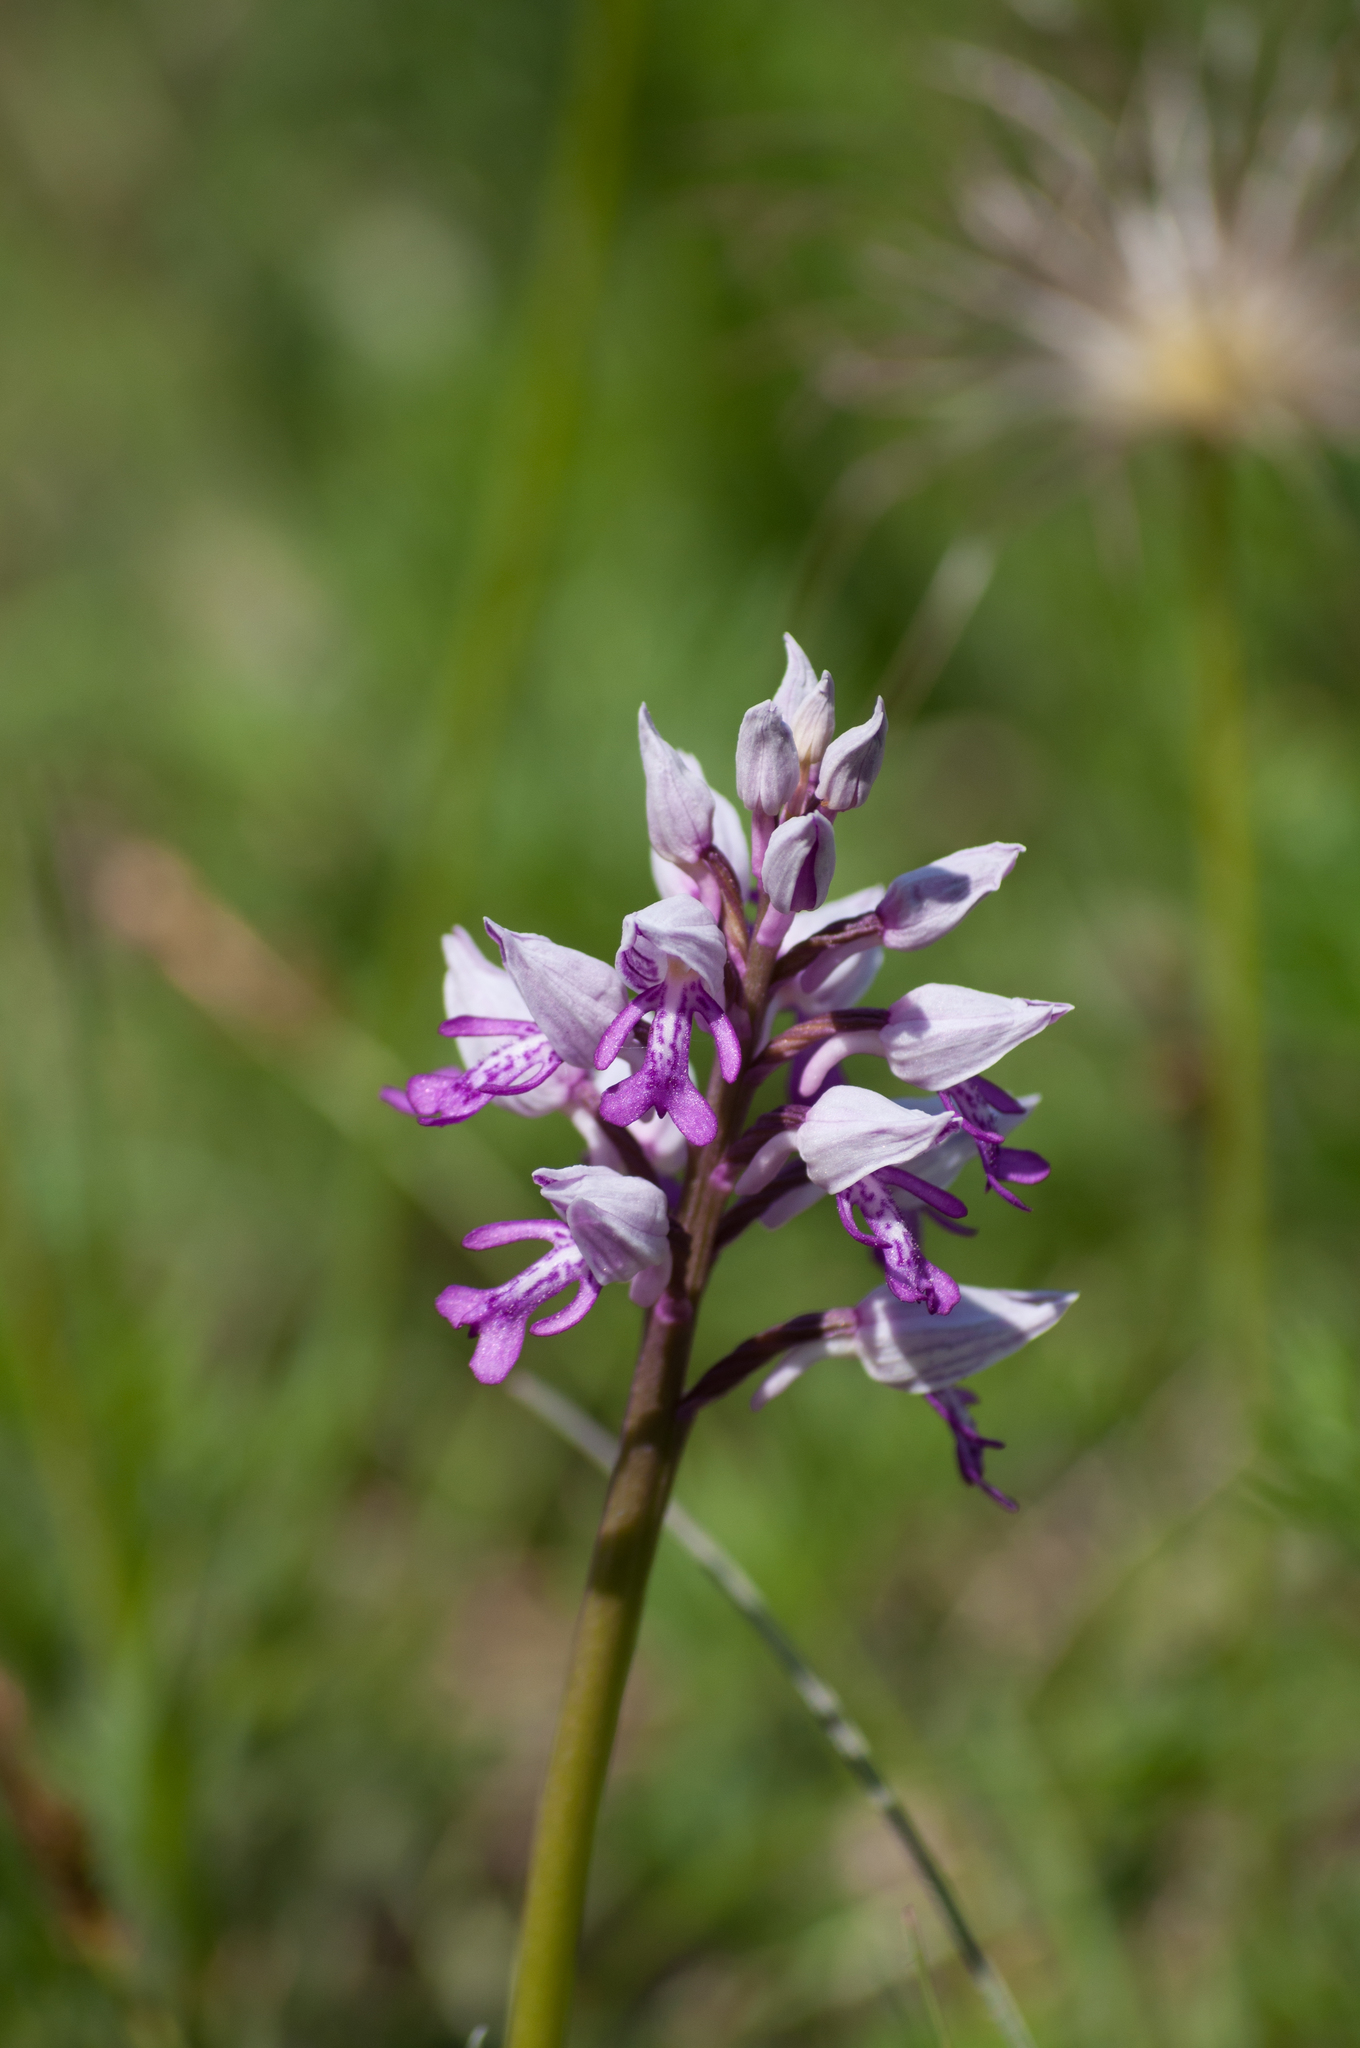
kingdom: Plantae
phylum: Tracheophyta
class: Liliopsida
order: Asparagales
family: Orchidaceae
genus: Orchis
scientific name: Orchis militaris
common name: Military orchid
